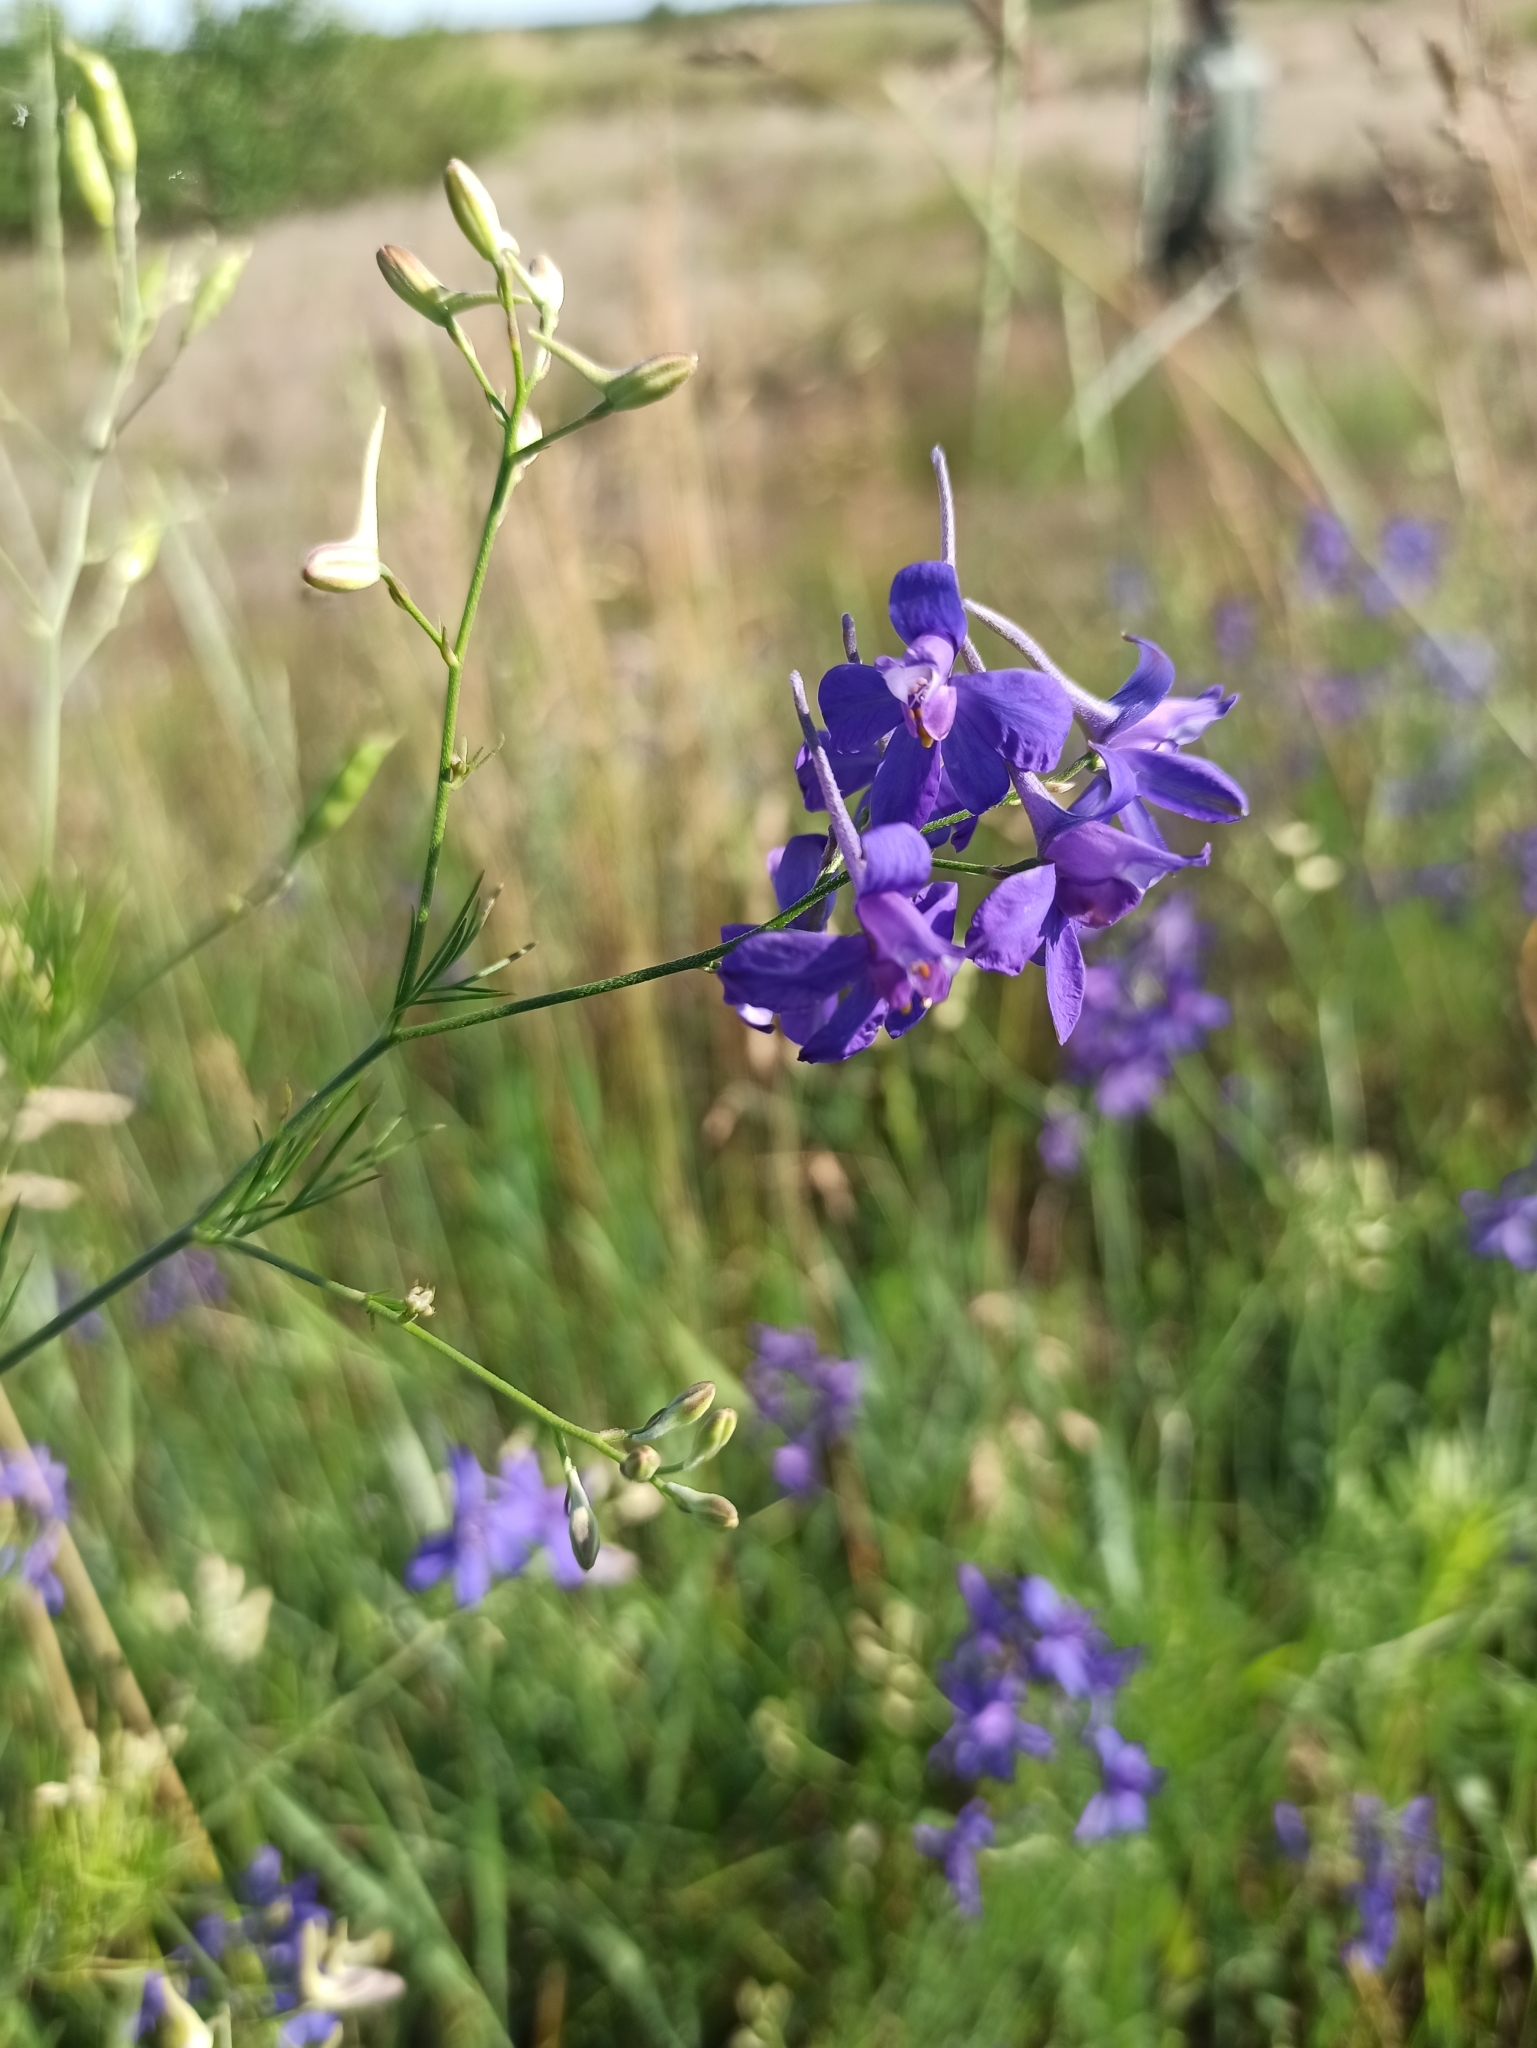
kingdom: Plantae
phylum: Tracheophyta
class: Magnoliopsida
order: Ranunculales
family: Ranunculaceae
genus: Delphinium
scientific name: Delphinium consolida
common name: Branching larkspur
